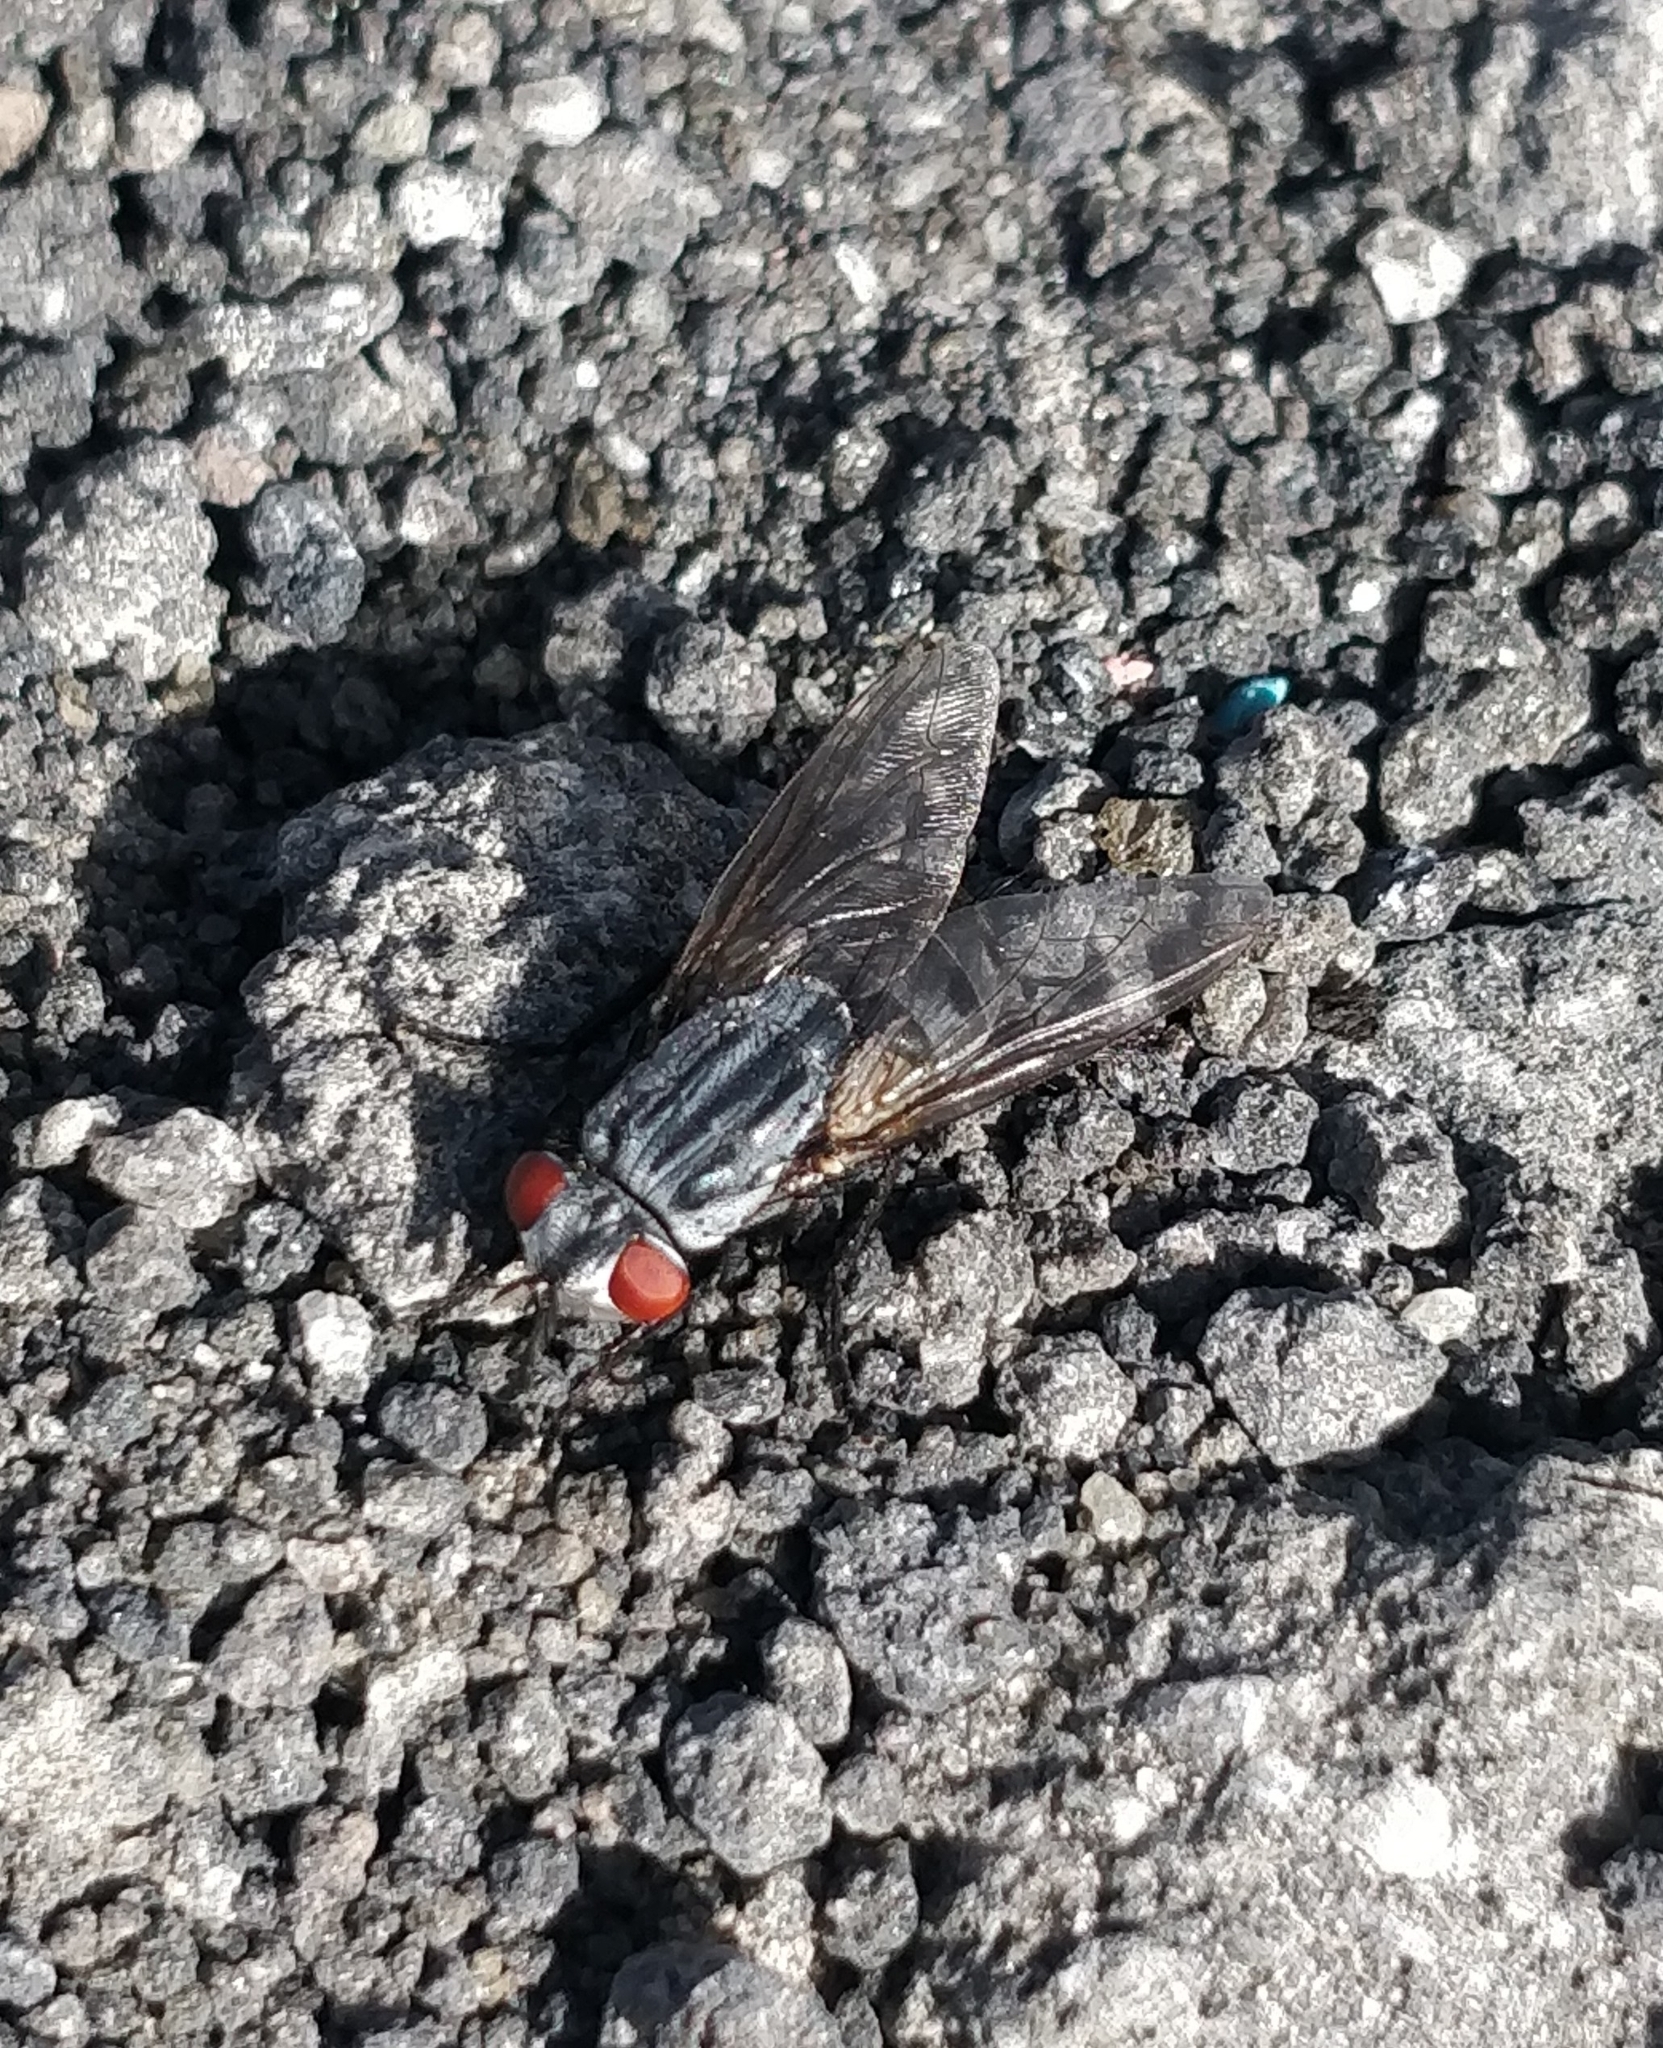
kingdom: Animalia
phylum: Arthropoda
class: Insecta
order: Diptera
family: Sarcophagidae
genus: Wohlfahrtia
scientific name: Wohlfahrtia bella
